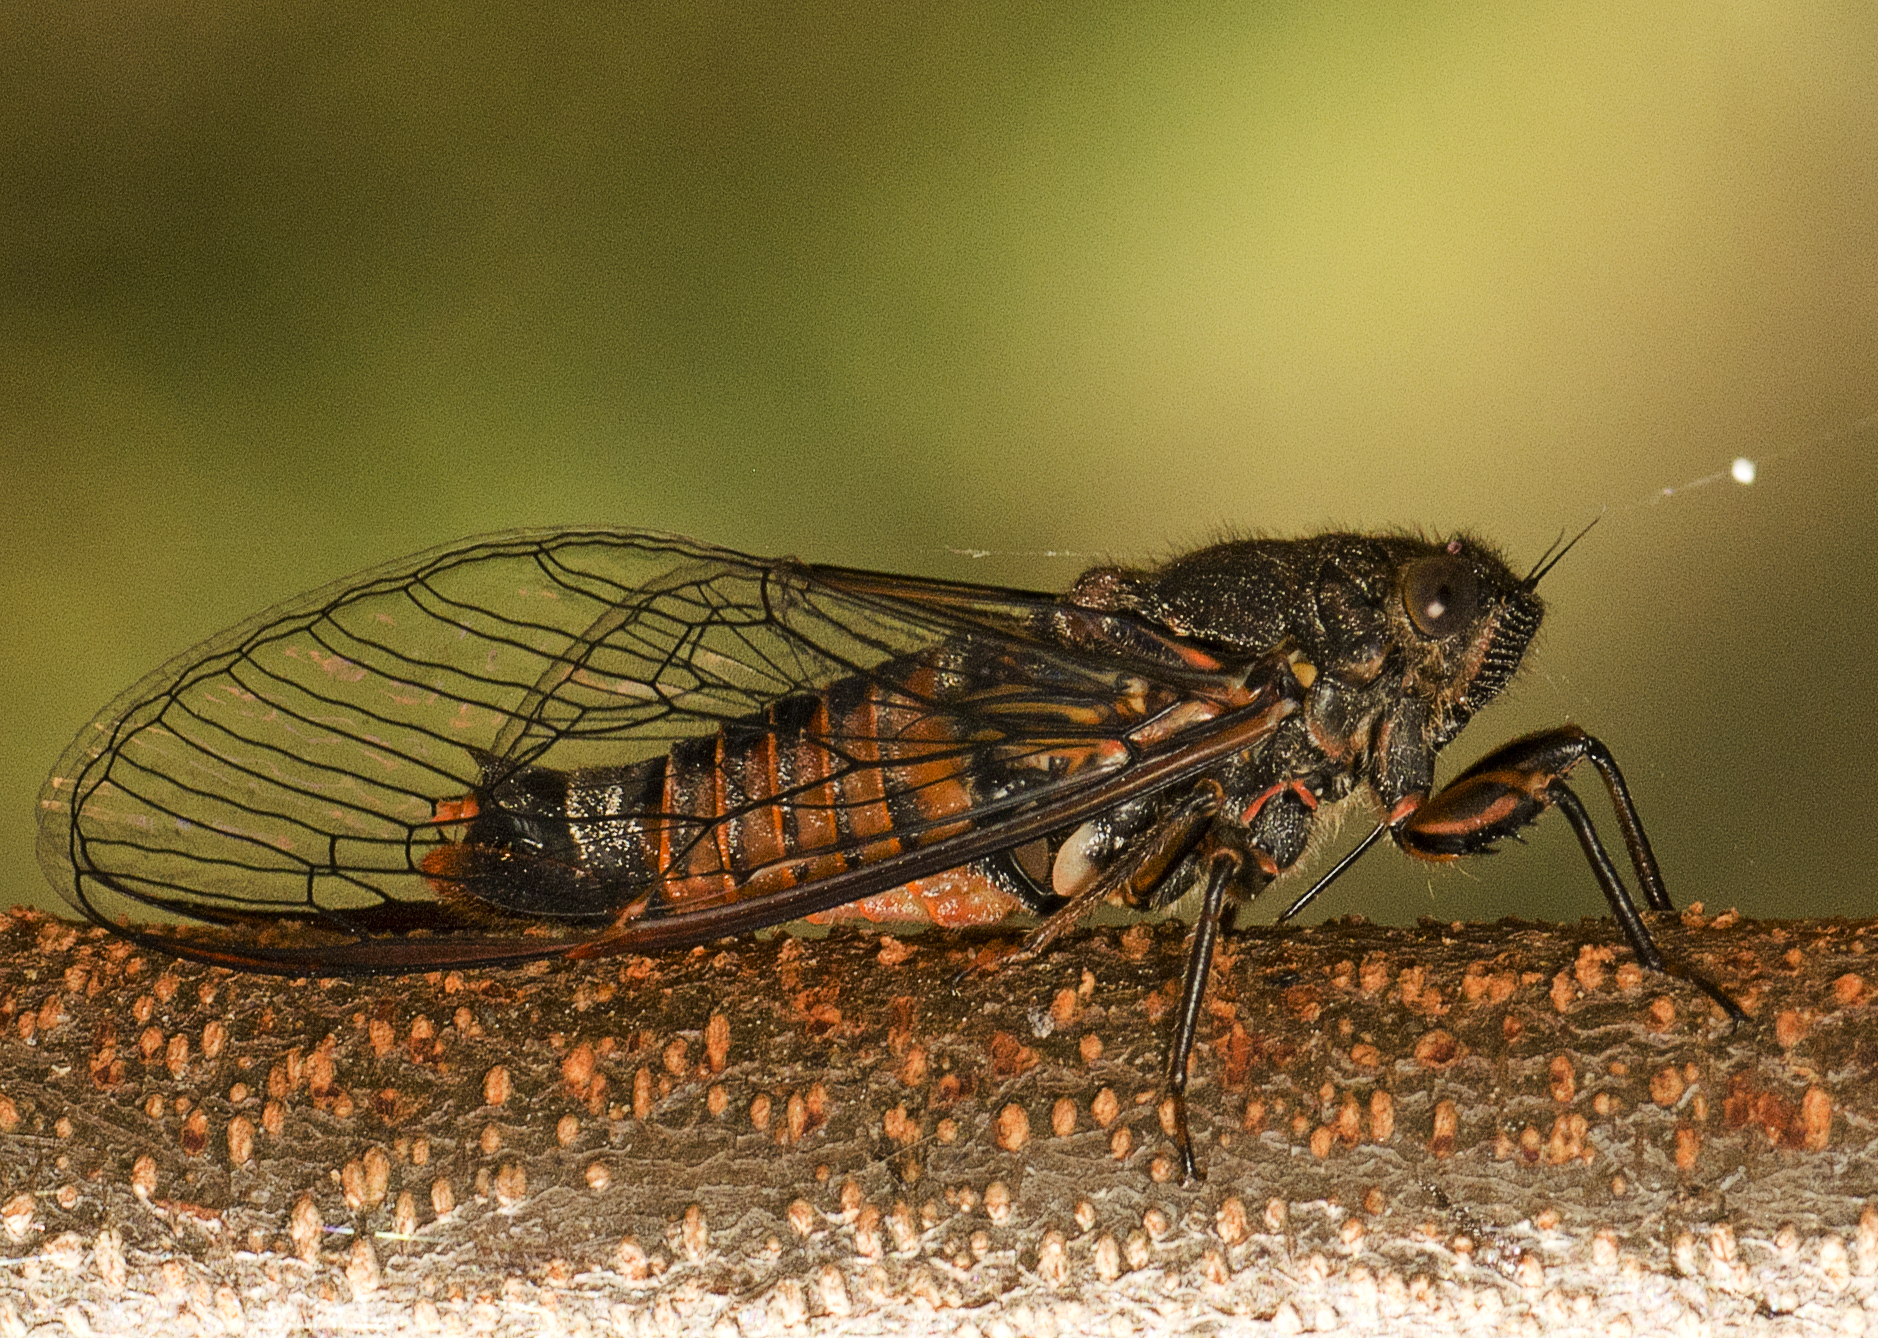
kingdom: Animalia
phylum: Arthropoda
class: Insecta
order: Hemiptera
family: Cicadidae
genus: Yoyetta
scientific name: Yoyetta robertsonae
